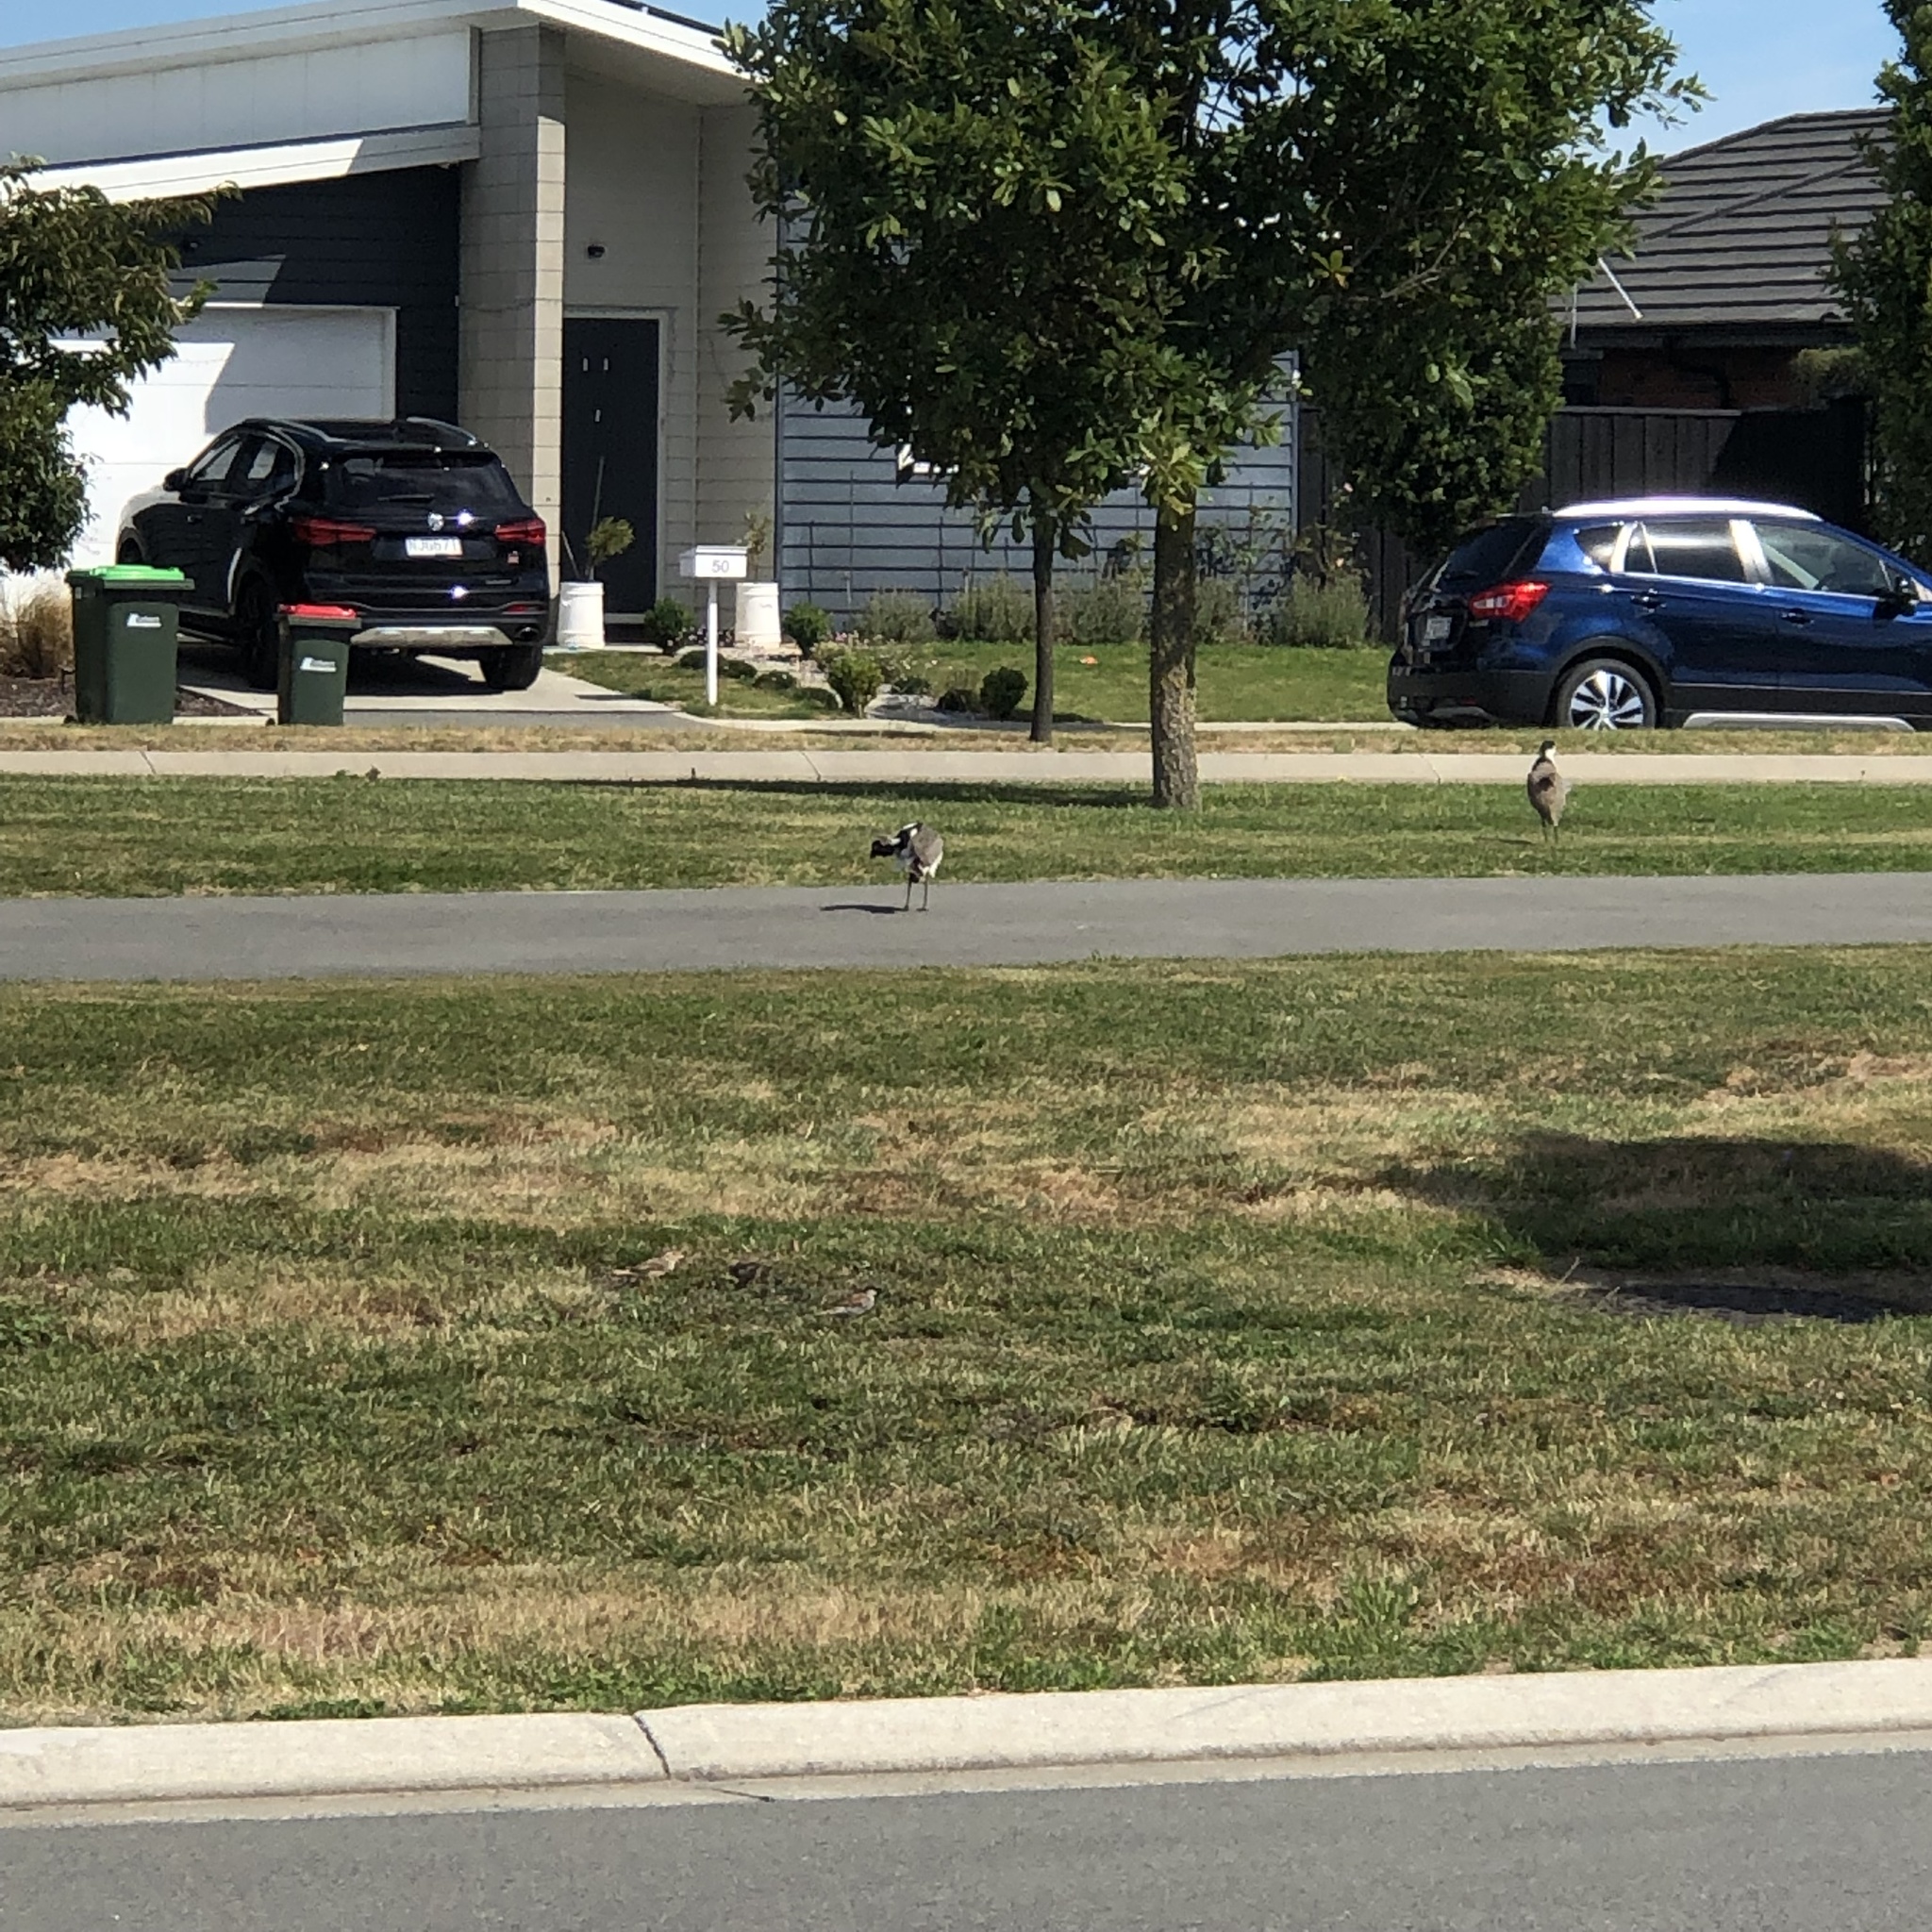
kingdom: Animalia
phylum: Chordata
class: Aves
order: Charadriiformes
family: Charadriidae
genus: Vanellus
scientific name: Vanellus miles
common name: Masked lapwing
